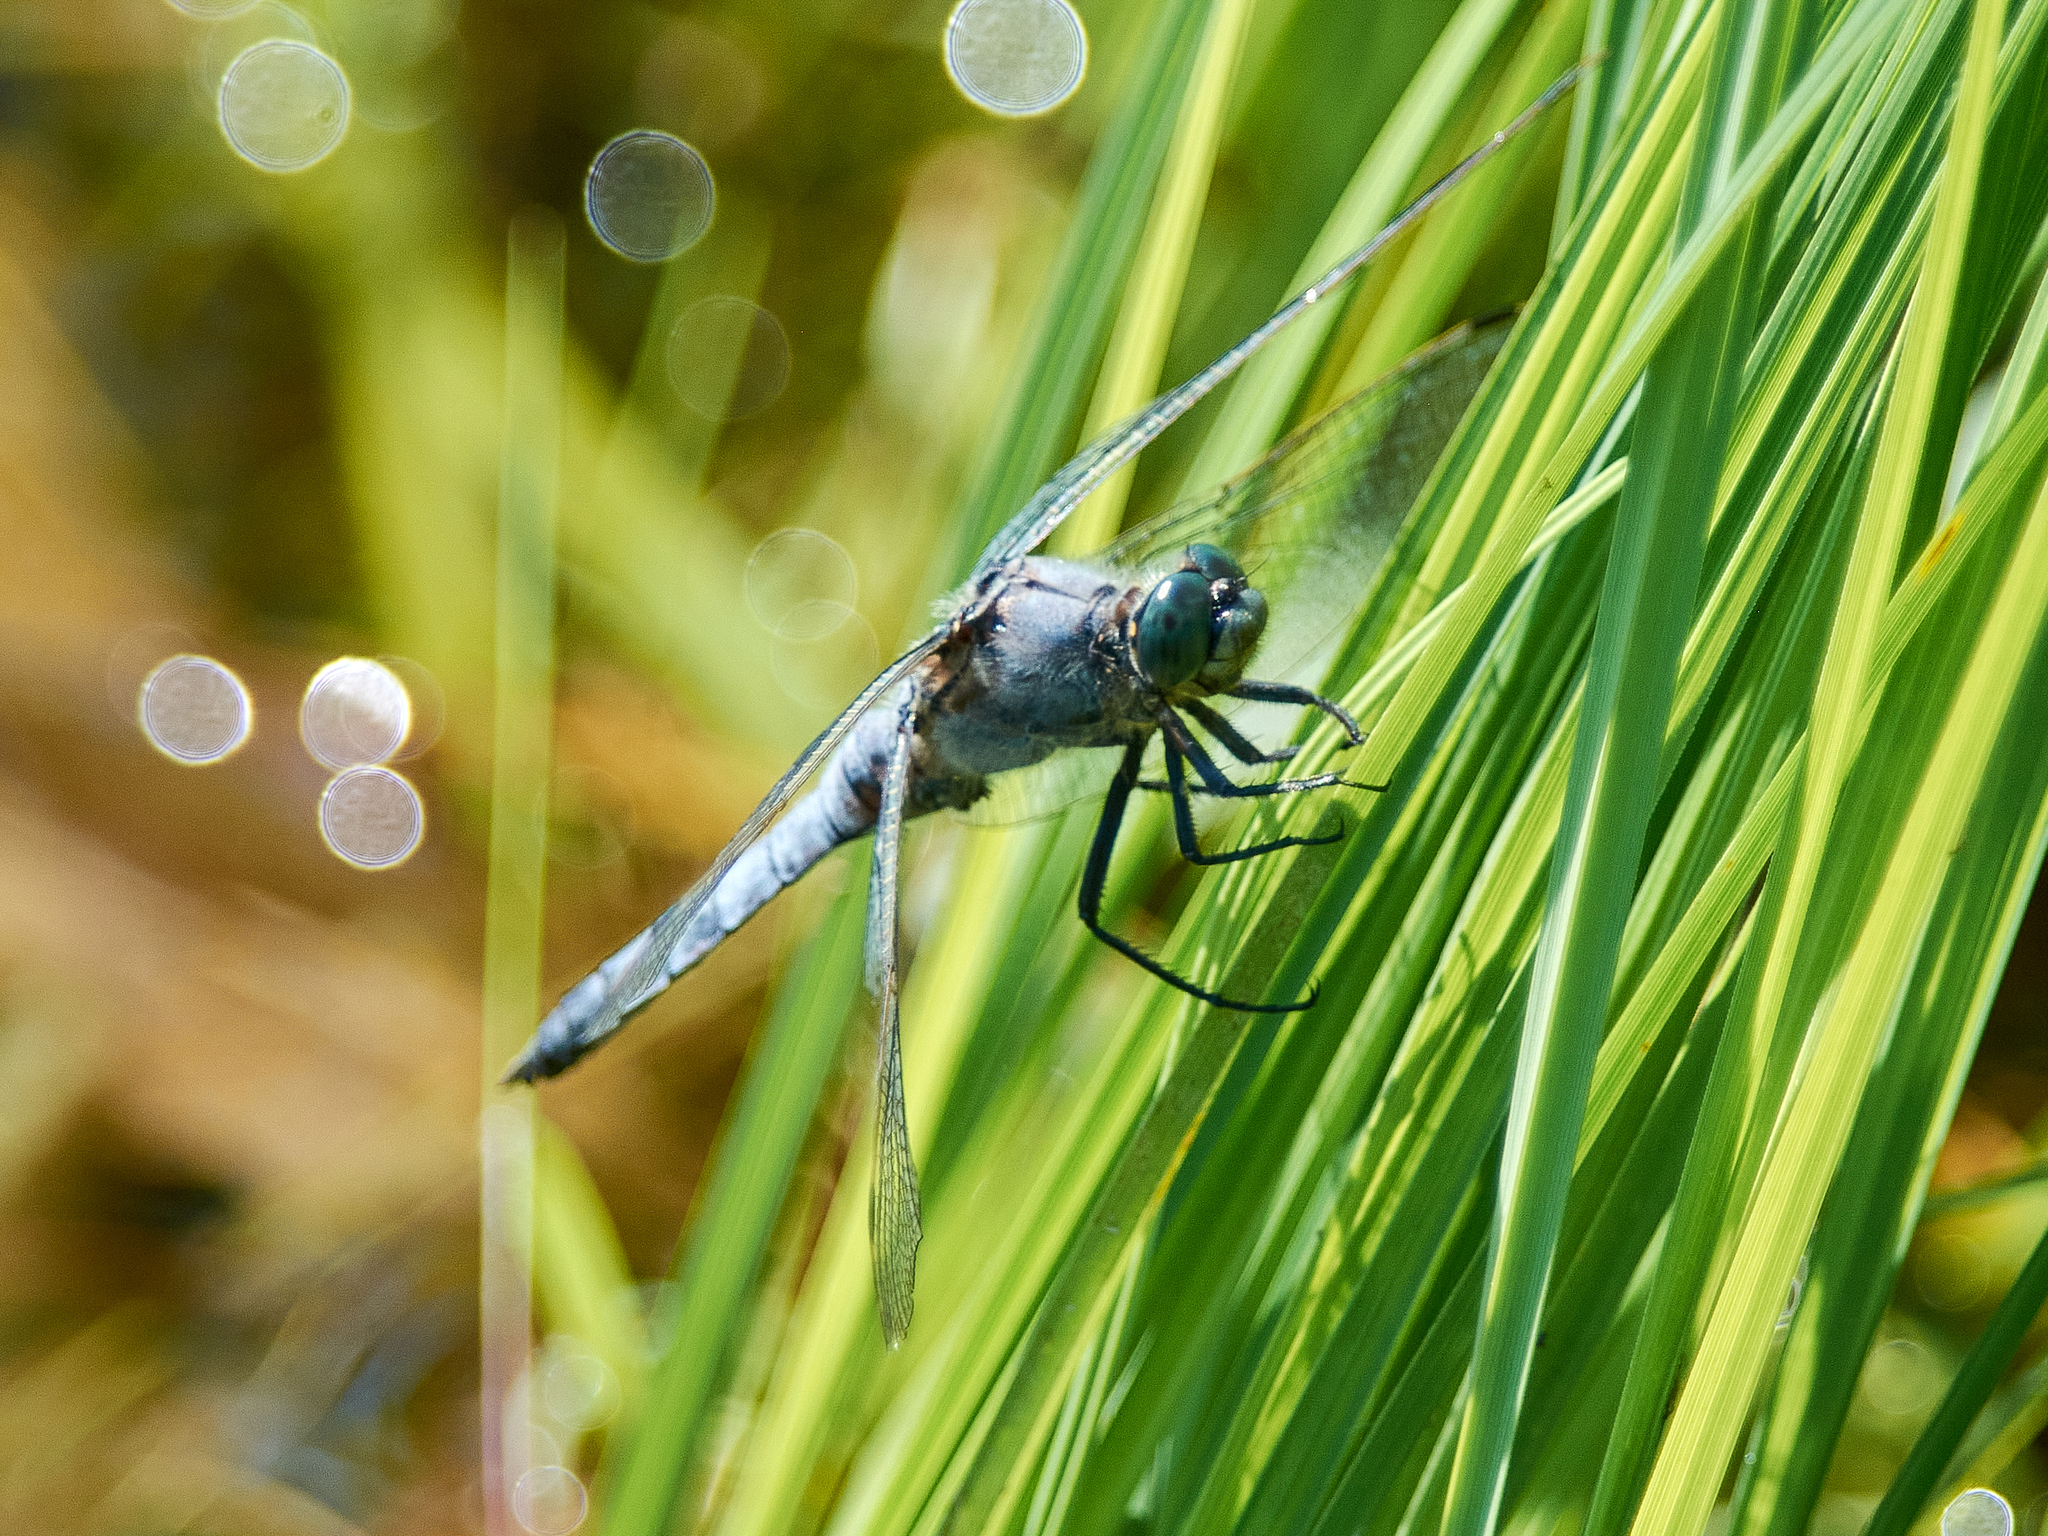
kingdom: Animalia
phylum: Arthropoda
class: Insecta
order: Odonata
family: Libellulidae
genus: Orthetrum
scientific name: Orthetrum cancellatum
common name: Black-tailed skimmer
